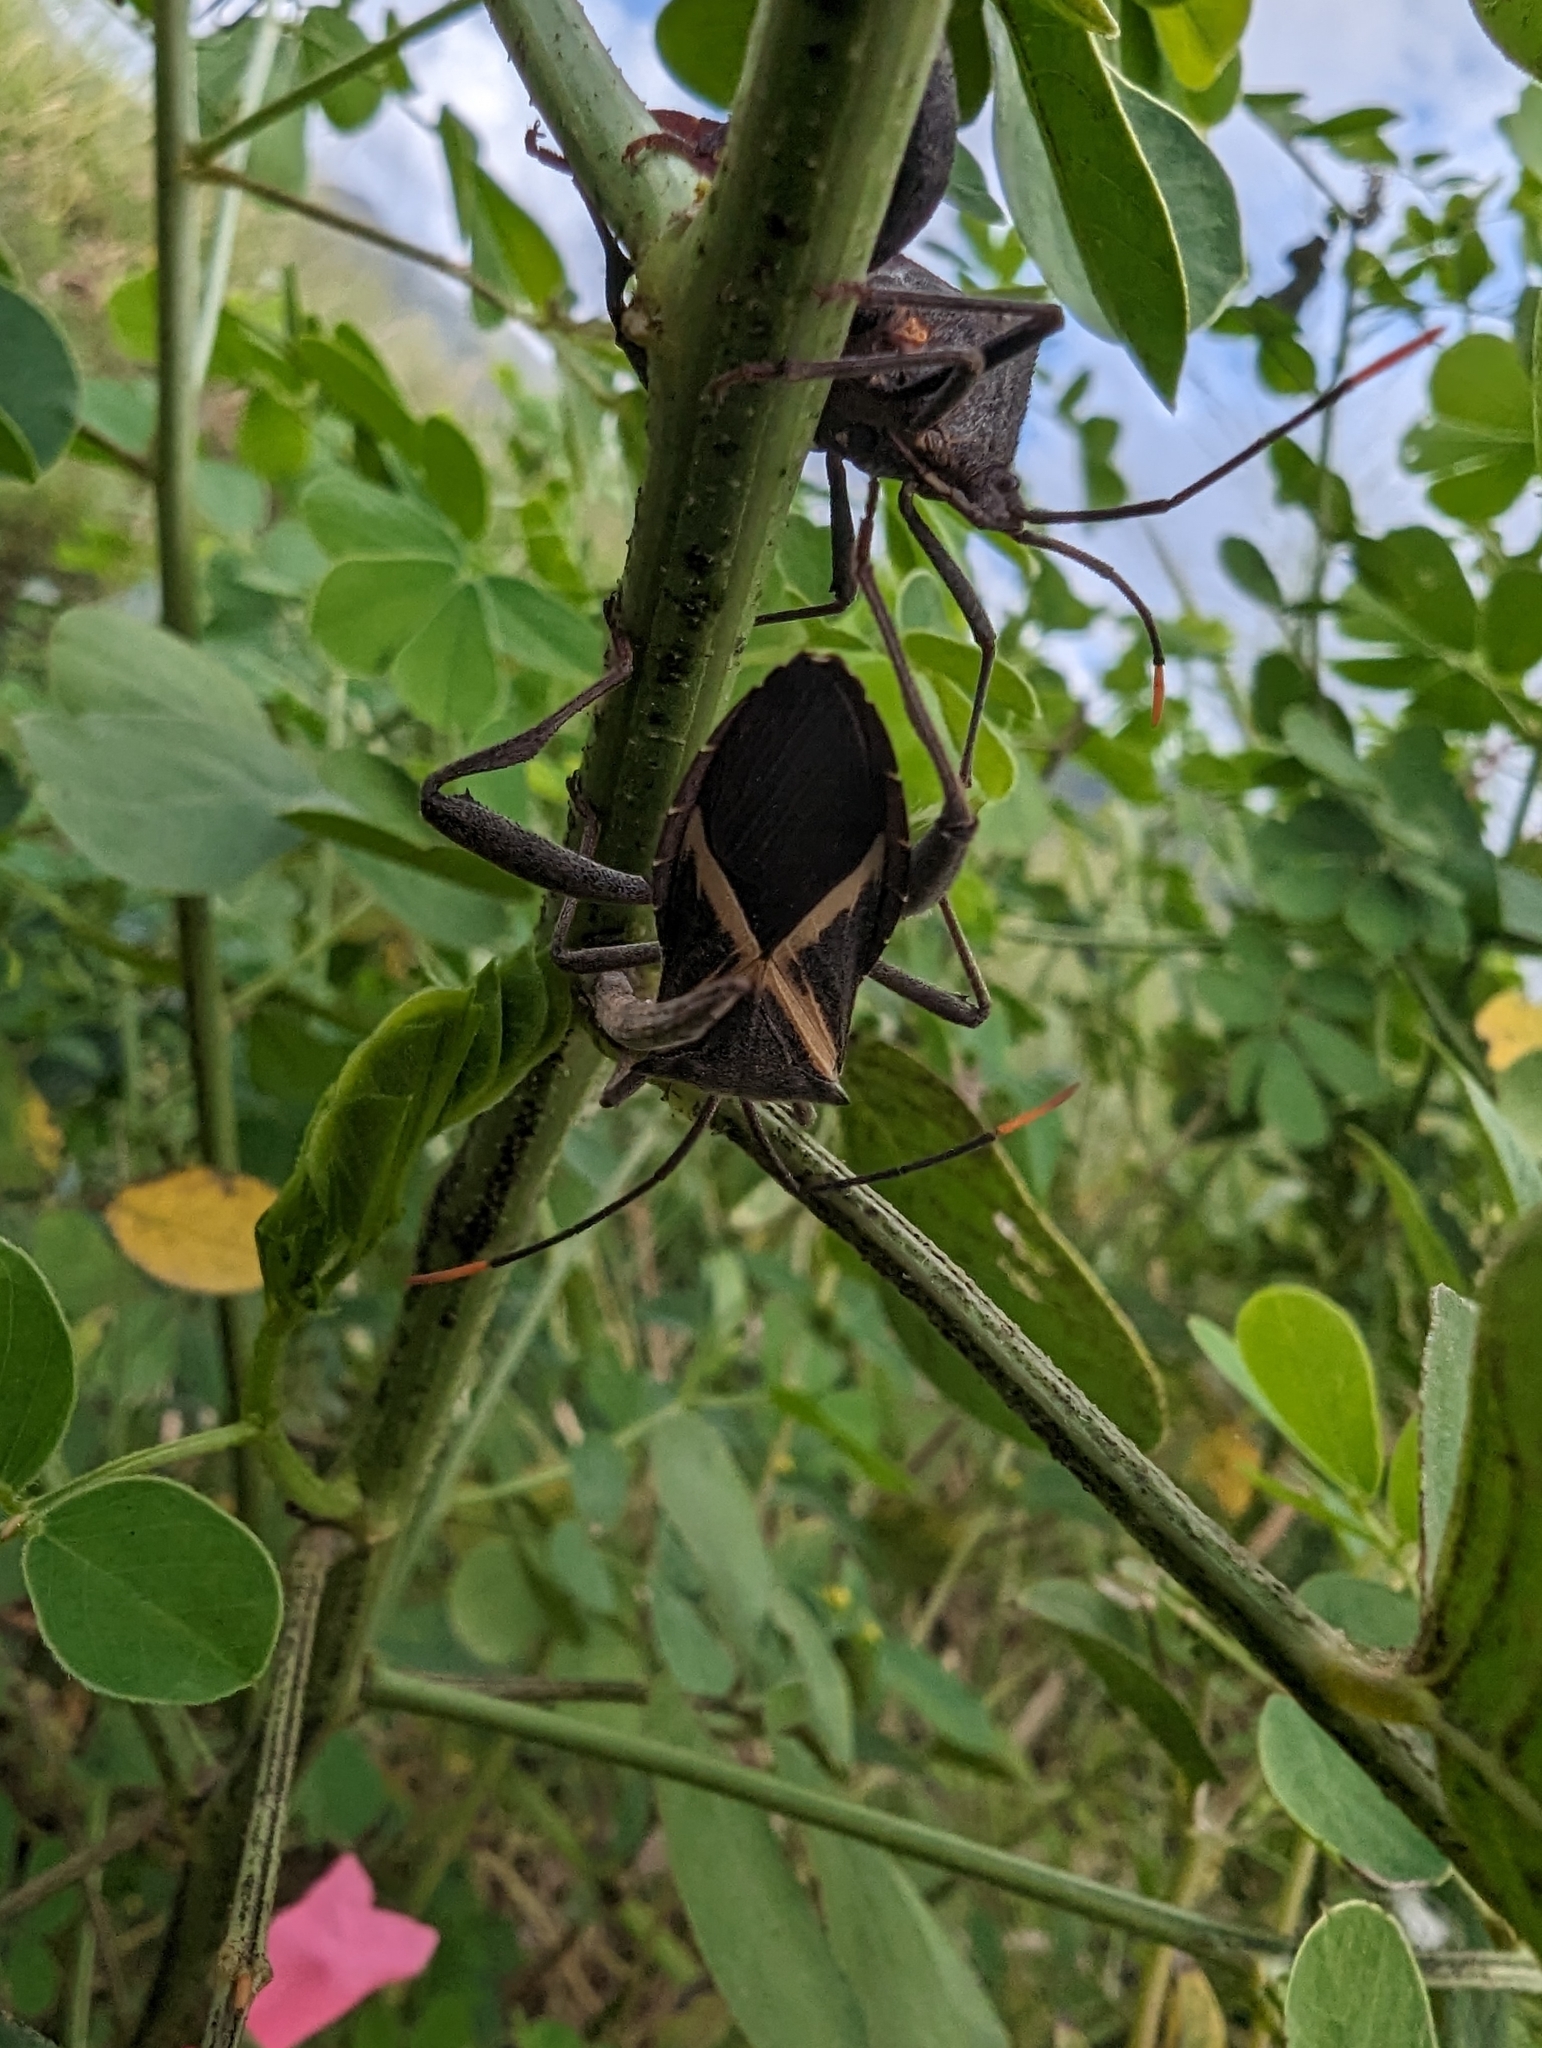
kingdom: Animalia
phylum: Arthropoda
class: Insecta
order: Hemiptera
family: Coreidae
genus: Mictis
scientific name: Mictis profana
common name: Crusader bug
